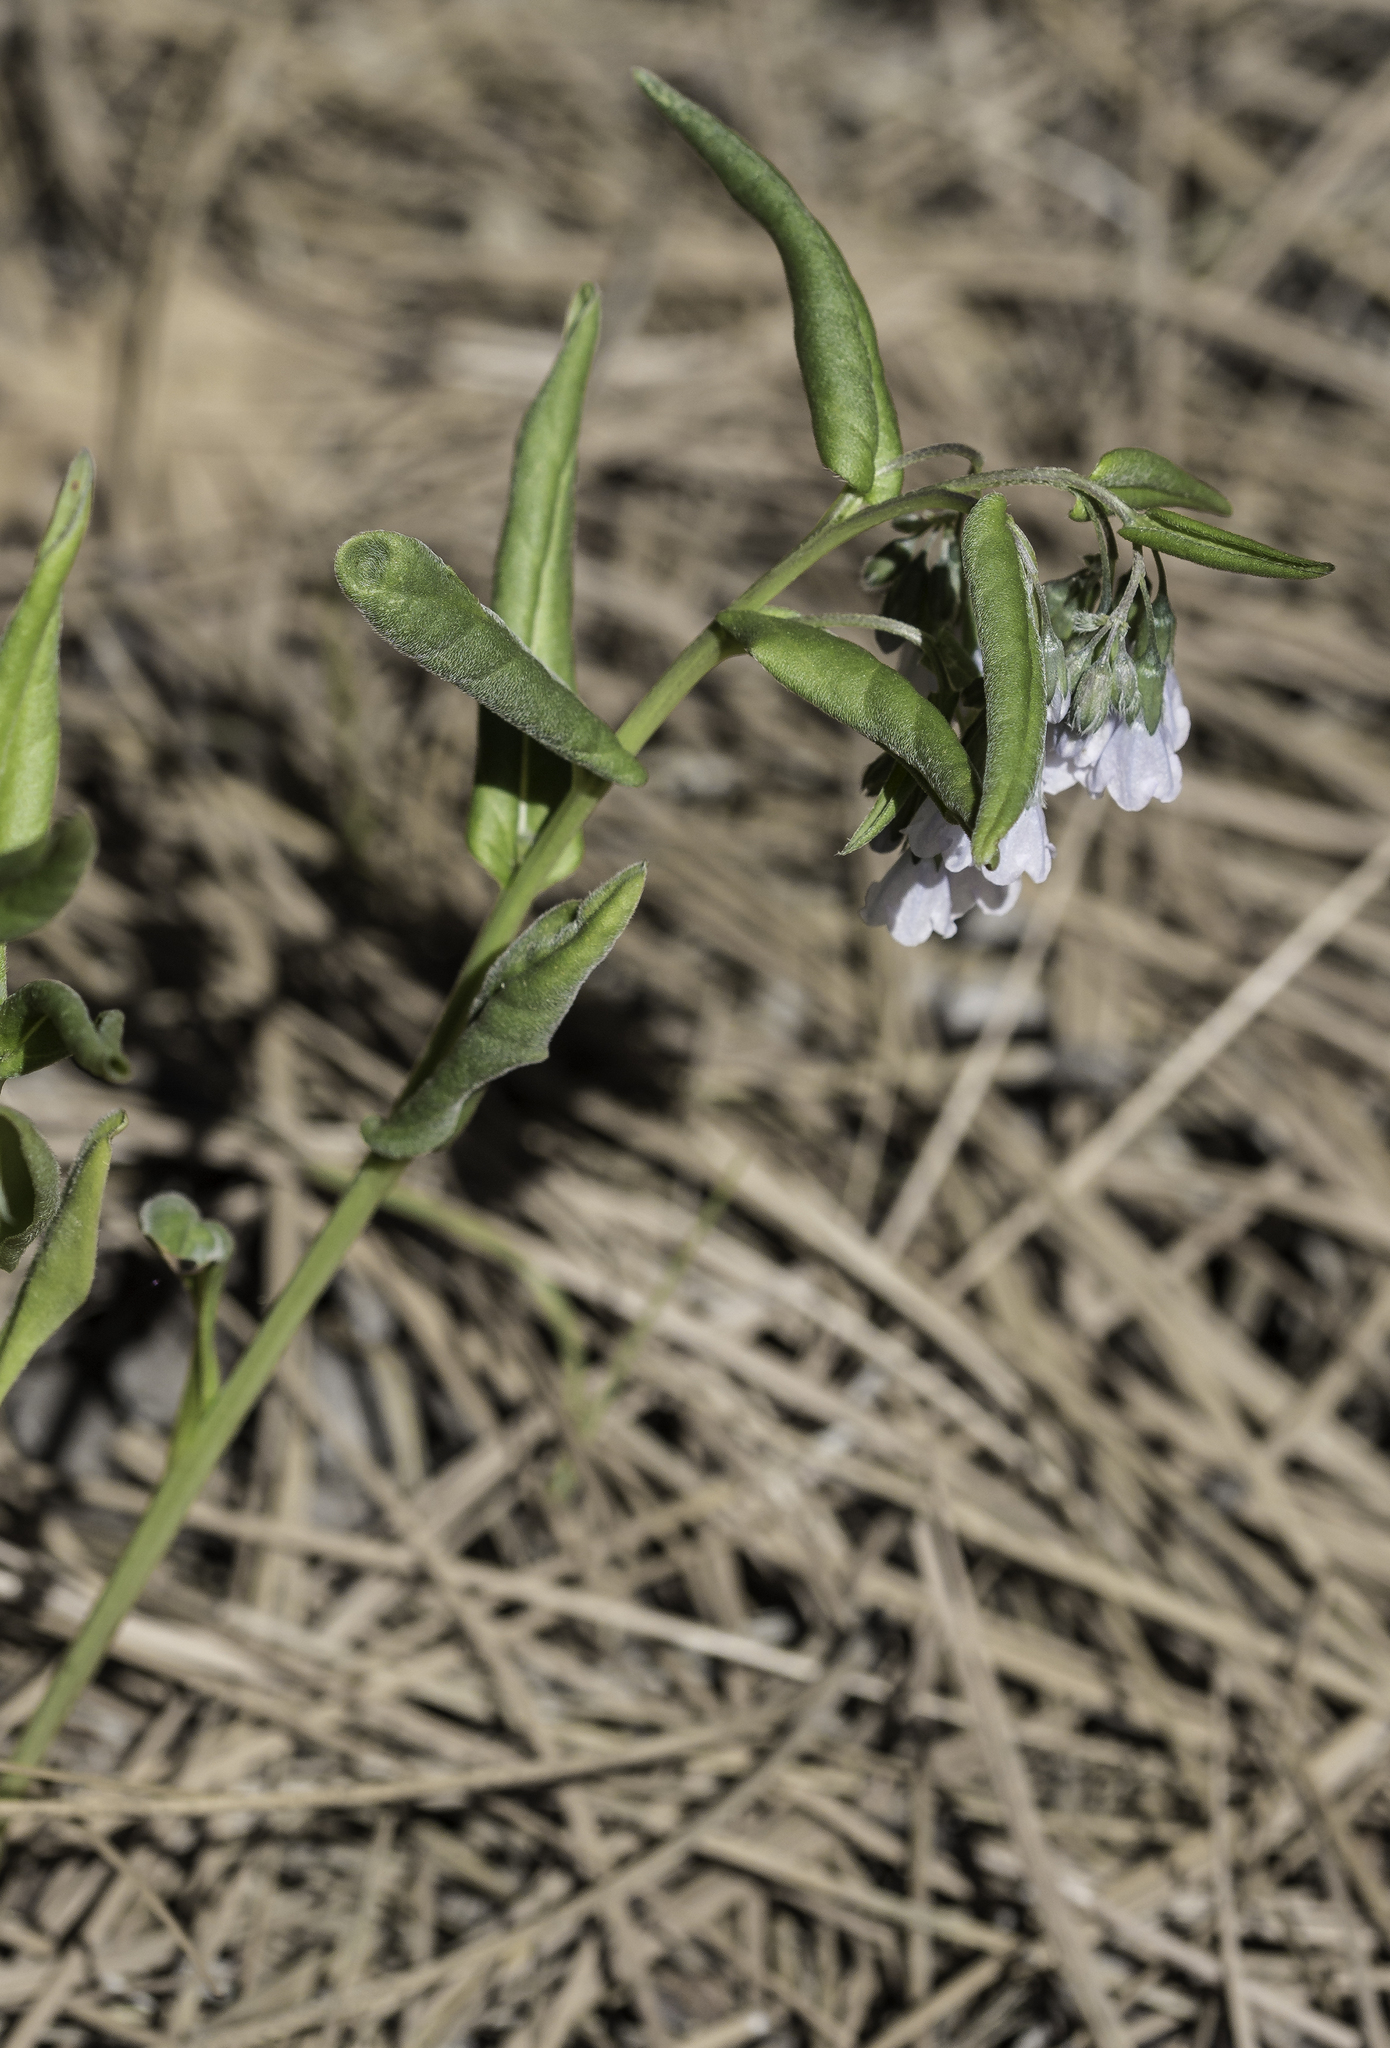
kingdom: Plantae
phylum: Tracheophyta
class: Magnoliopsida
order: Boraginales
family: Boraginaceae
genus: Mertensia
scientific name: Mertensia fendleri
